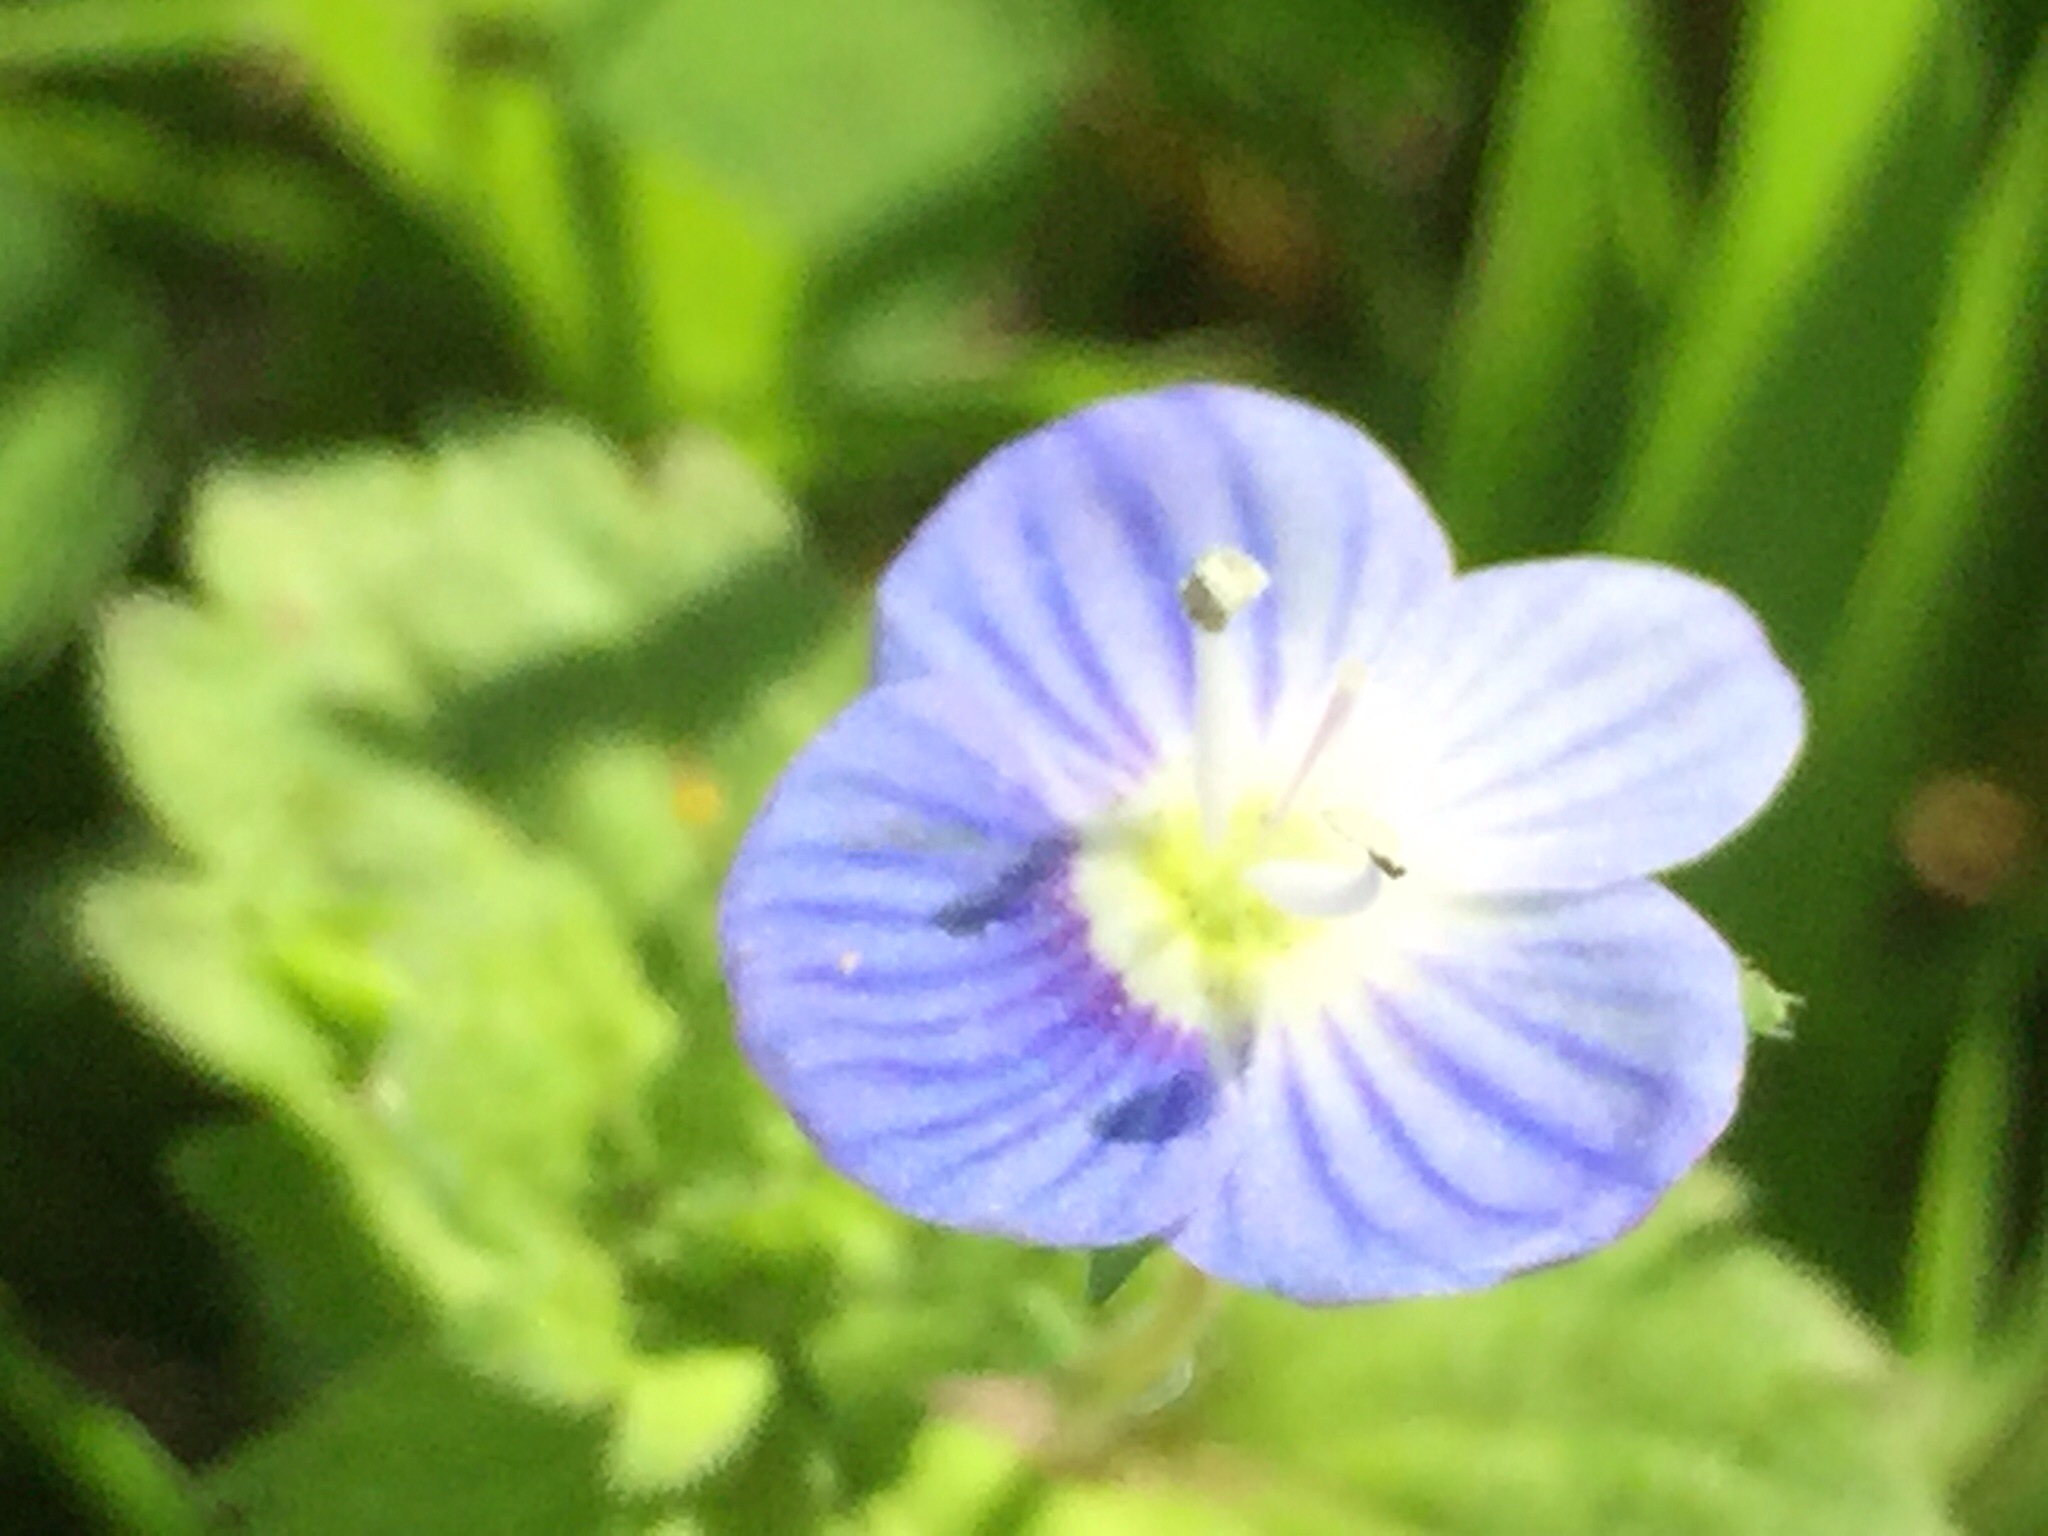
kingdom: Plantae
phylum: Tracheophyta
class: Magnoliopsida
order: Lamiales
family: Plantaginaceae
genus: Veronica
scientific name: Veronica persica
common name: Common field-speedwell
